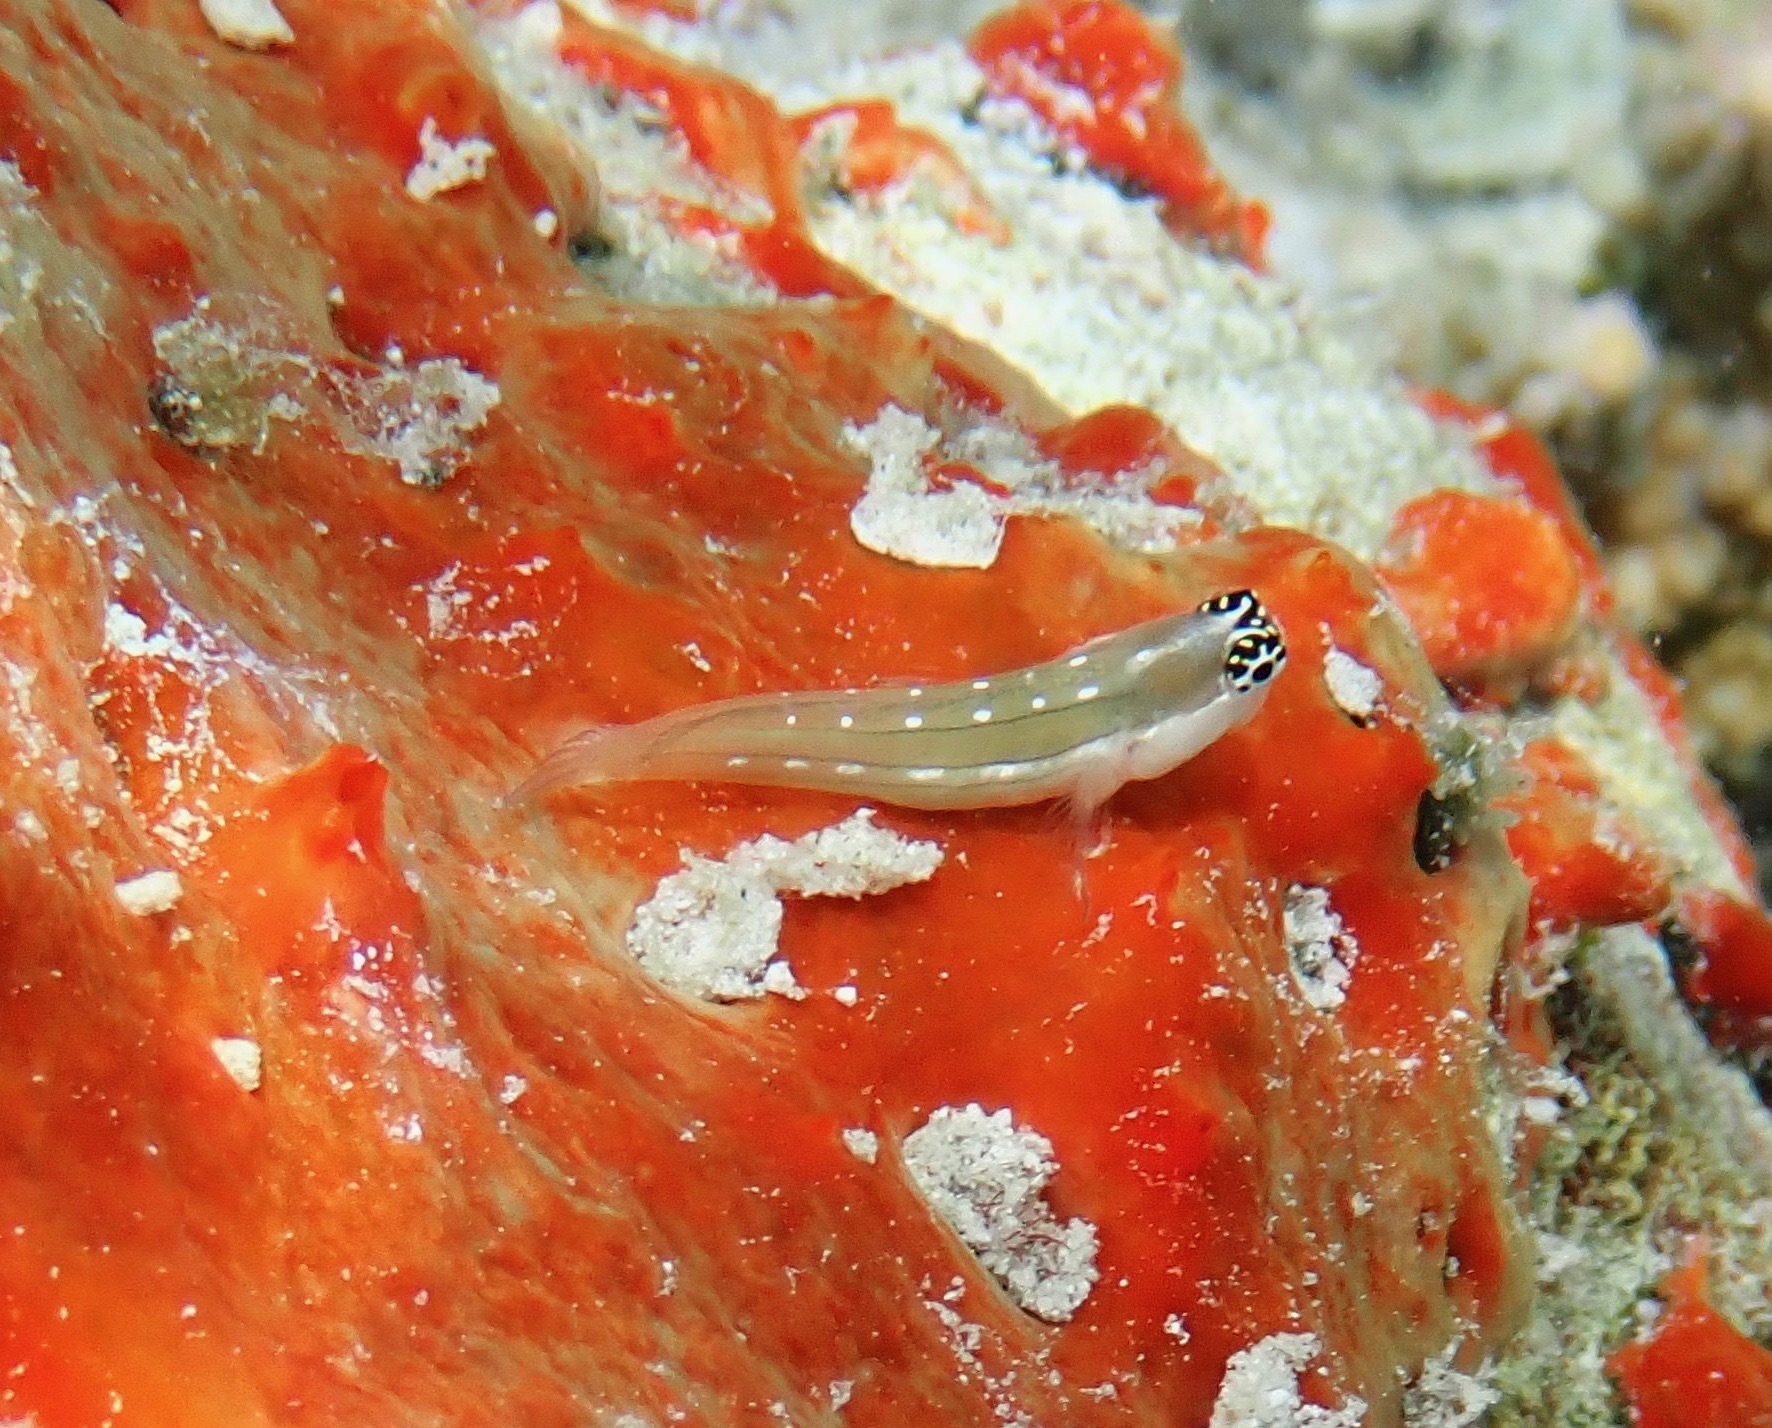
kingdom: Animalia
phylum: Chordata
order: Perciformes
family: Blenniidae
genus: Ecsenius
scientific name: Ecsenius schroederi
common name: Schroeder's combtooth-blenny
